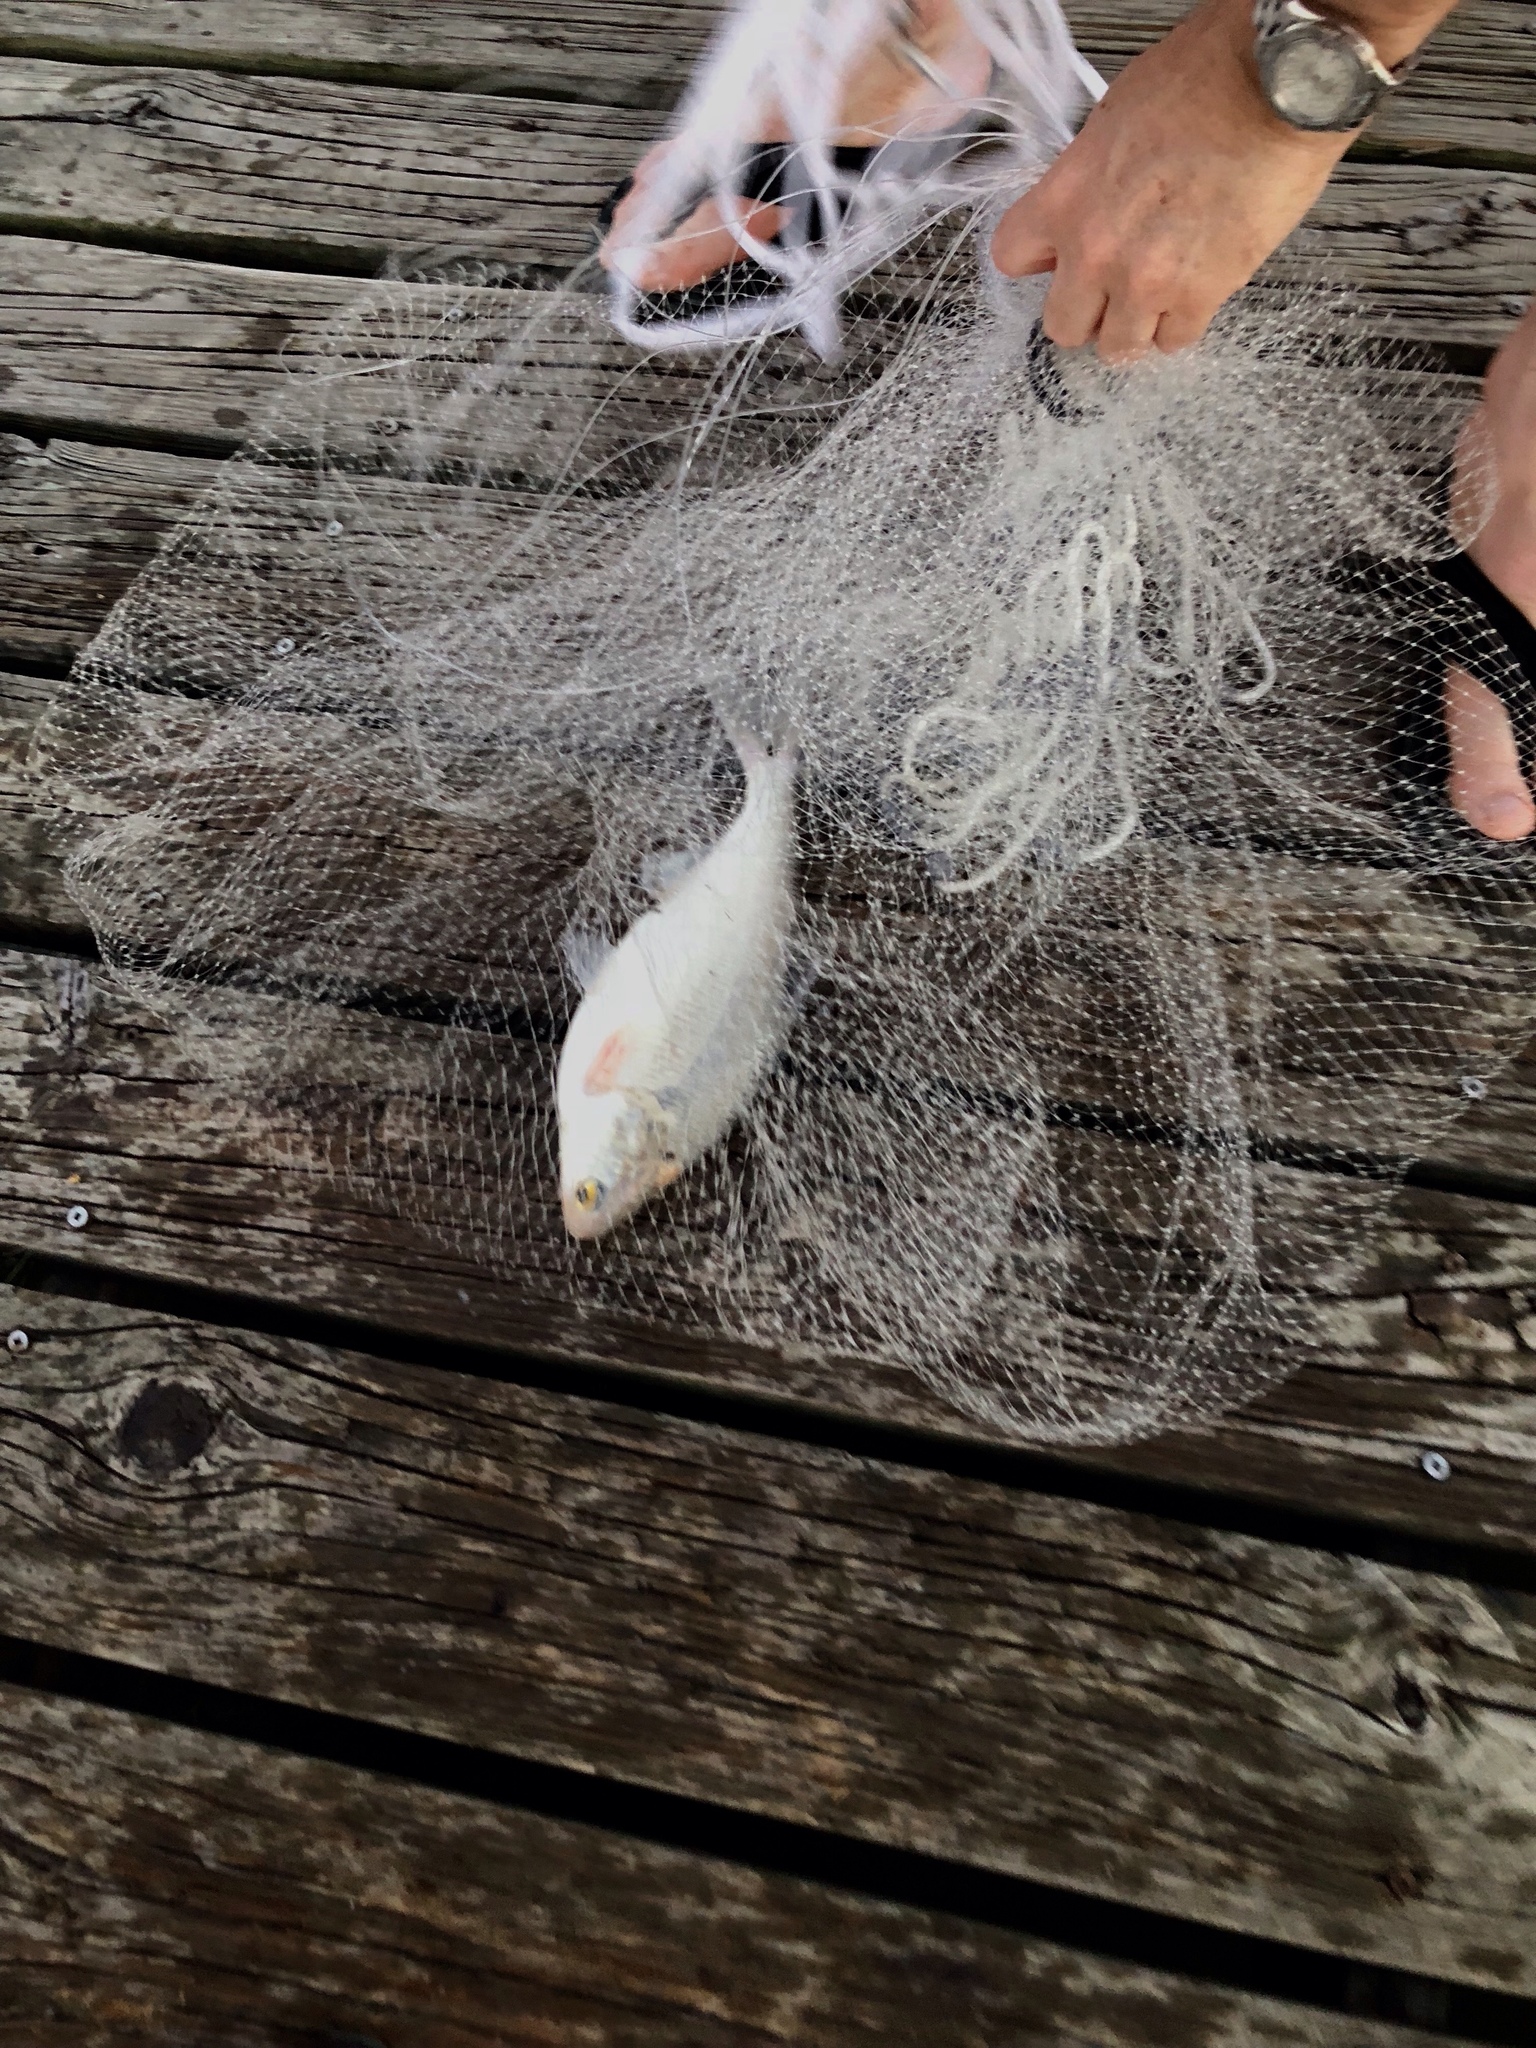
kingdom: Animalia
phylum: Chordata
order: Clupeiformes
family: Clupeidae
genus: Dorosoma
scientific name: Dorosoma cepedianum
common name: Gizzard shad
